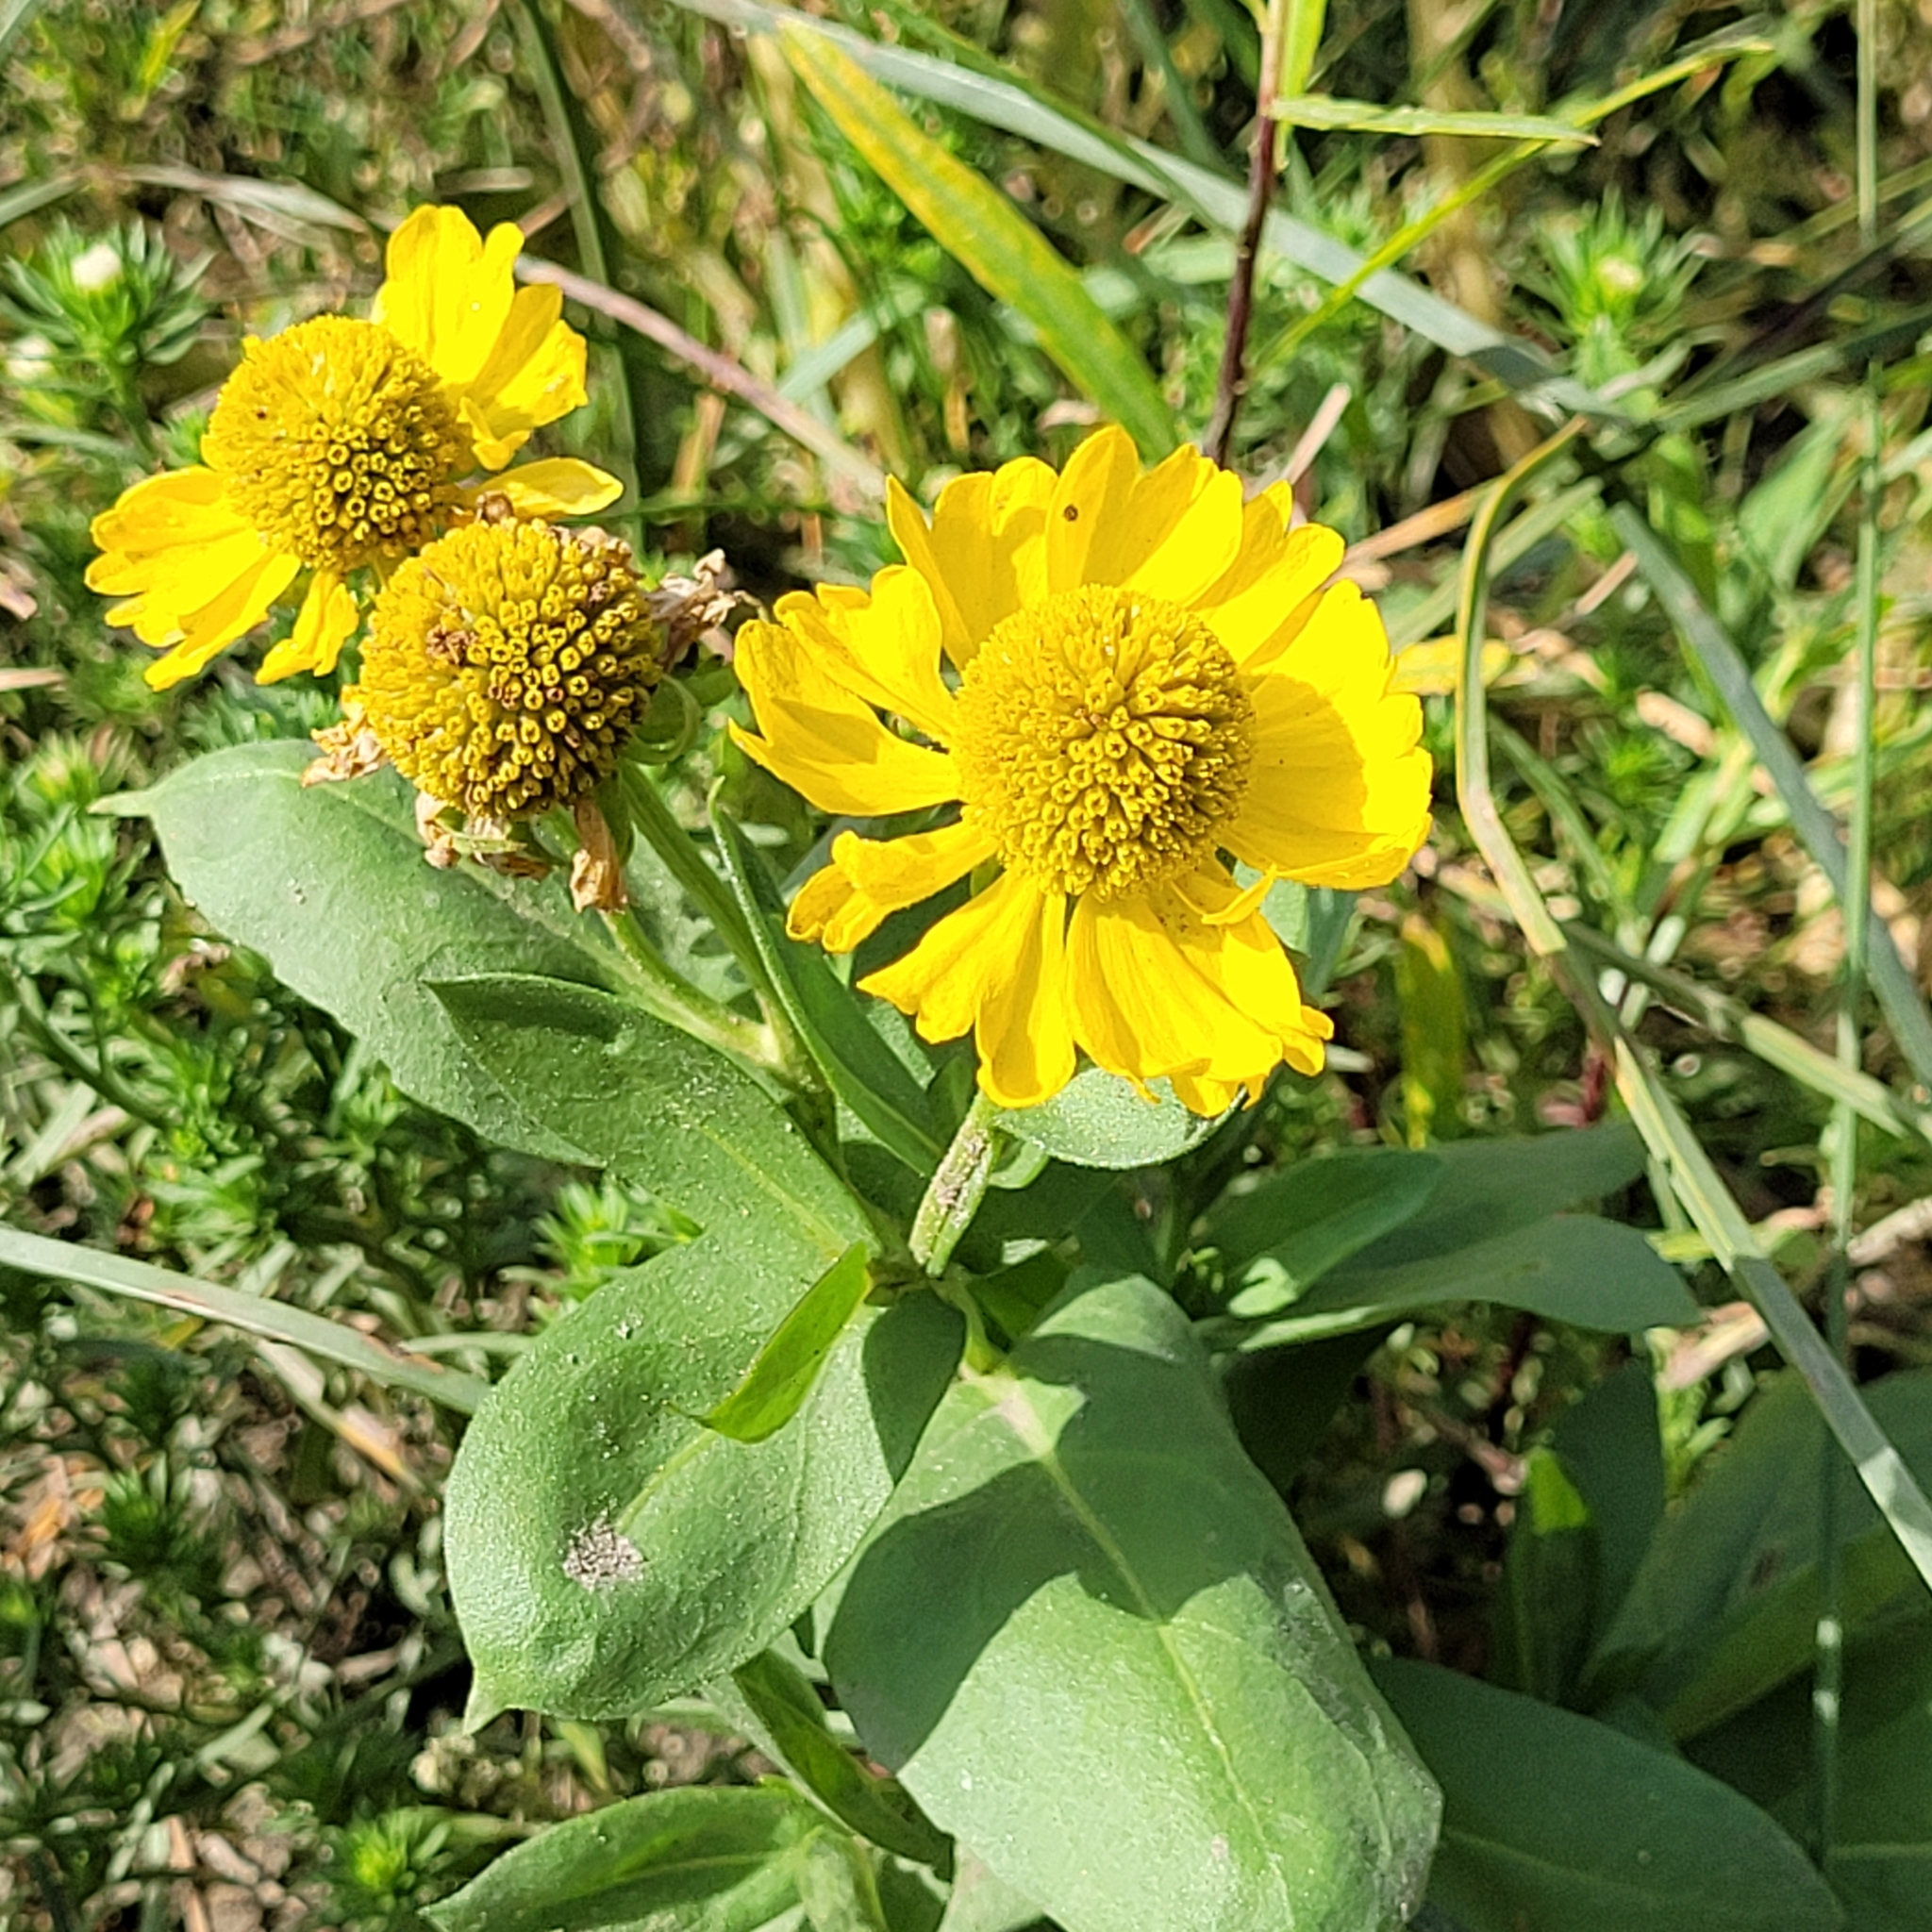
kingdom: Plantae
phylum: Tracheophyta
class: Magnoliopsida
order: Asterales
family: Asteraceae
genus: Helenium
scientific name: Helenium autumnale
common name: Sneezeweed
